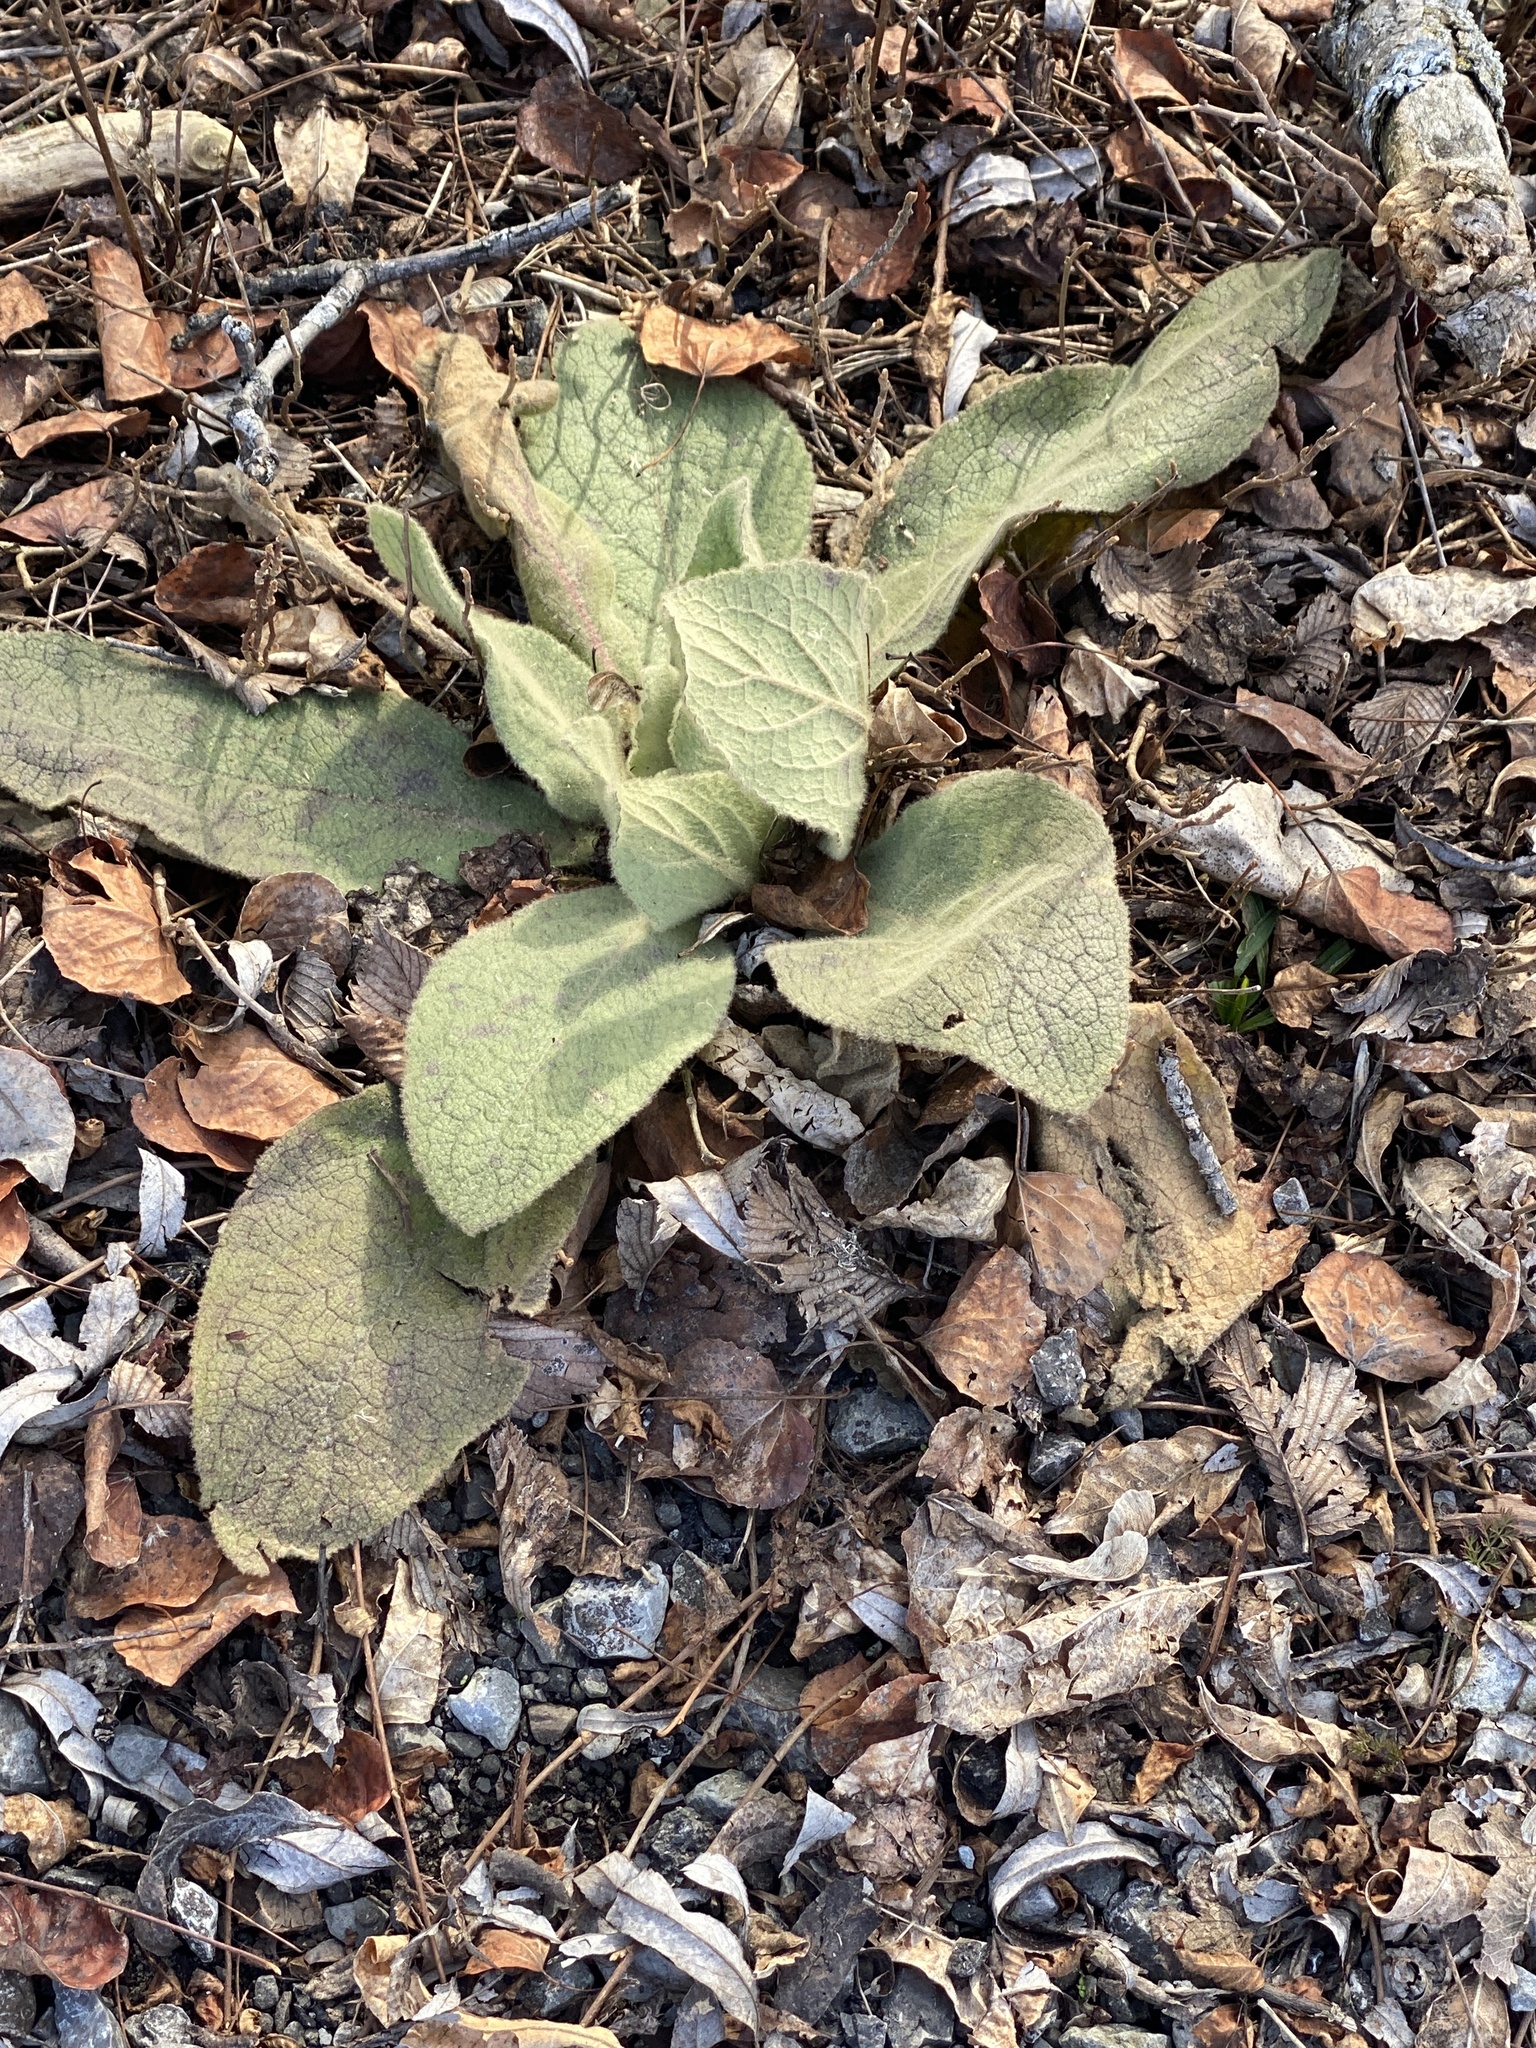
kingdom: Plantae
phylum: Tracheophyta
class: Magnoliopsida
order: Lamiales
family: Scrophulariaceae
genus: Verbascum
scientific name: Verbascum thapsus
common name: Common mullein
